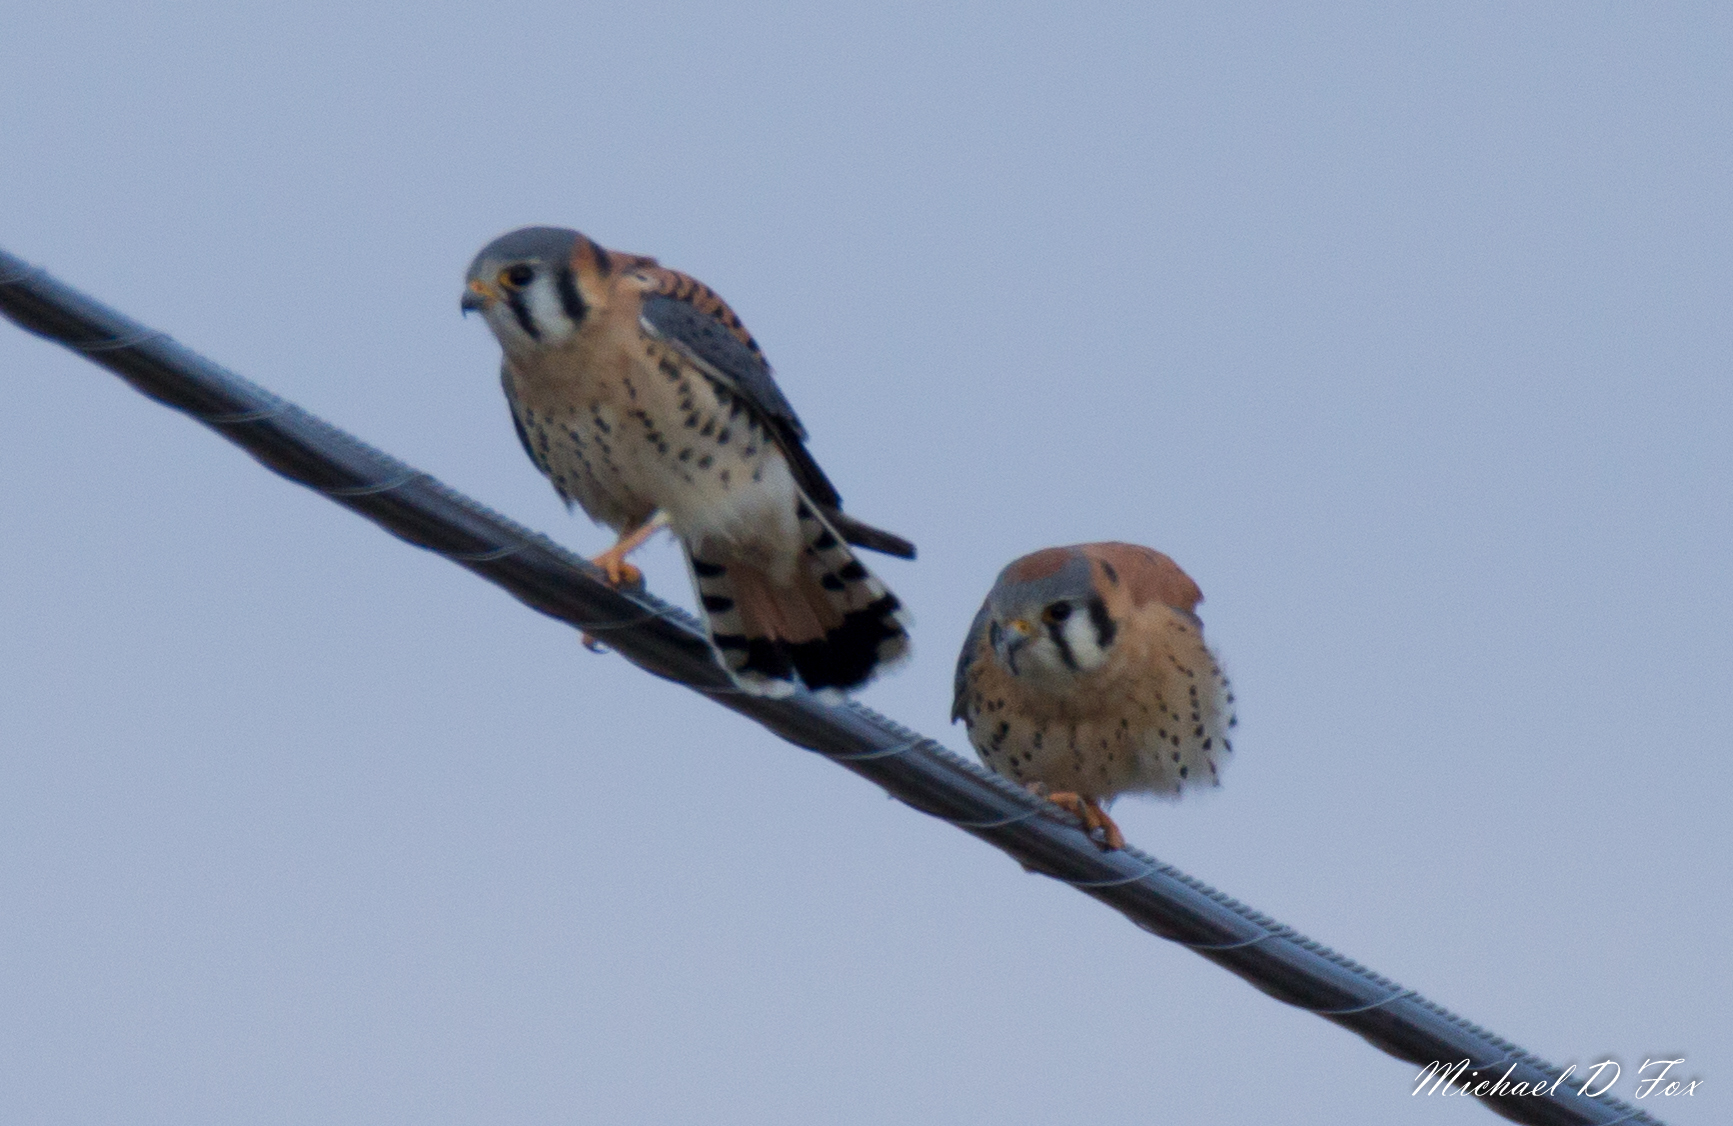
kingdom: Animalia
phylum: Chordata
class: Aves
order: Falconiformes
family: Falconidae
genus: Falco
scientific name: Falco sparverius
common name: American kestrel
